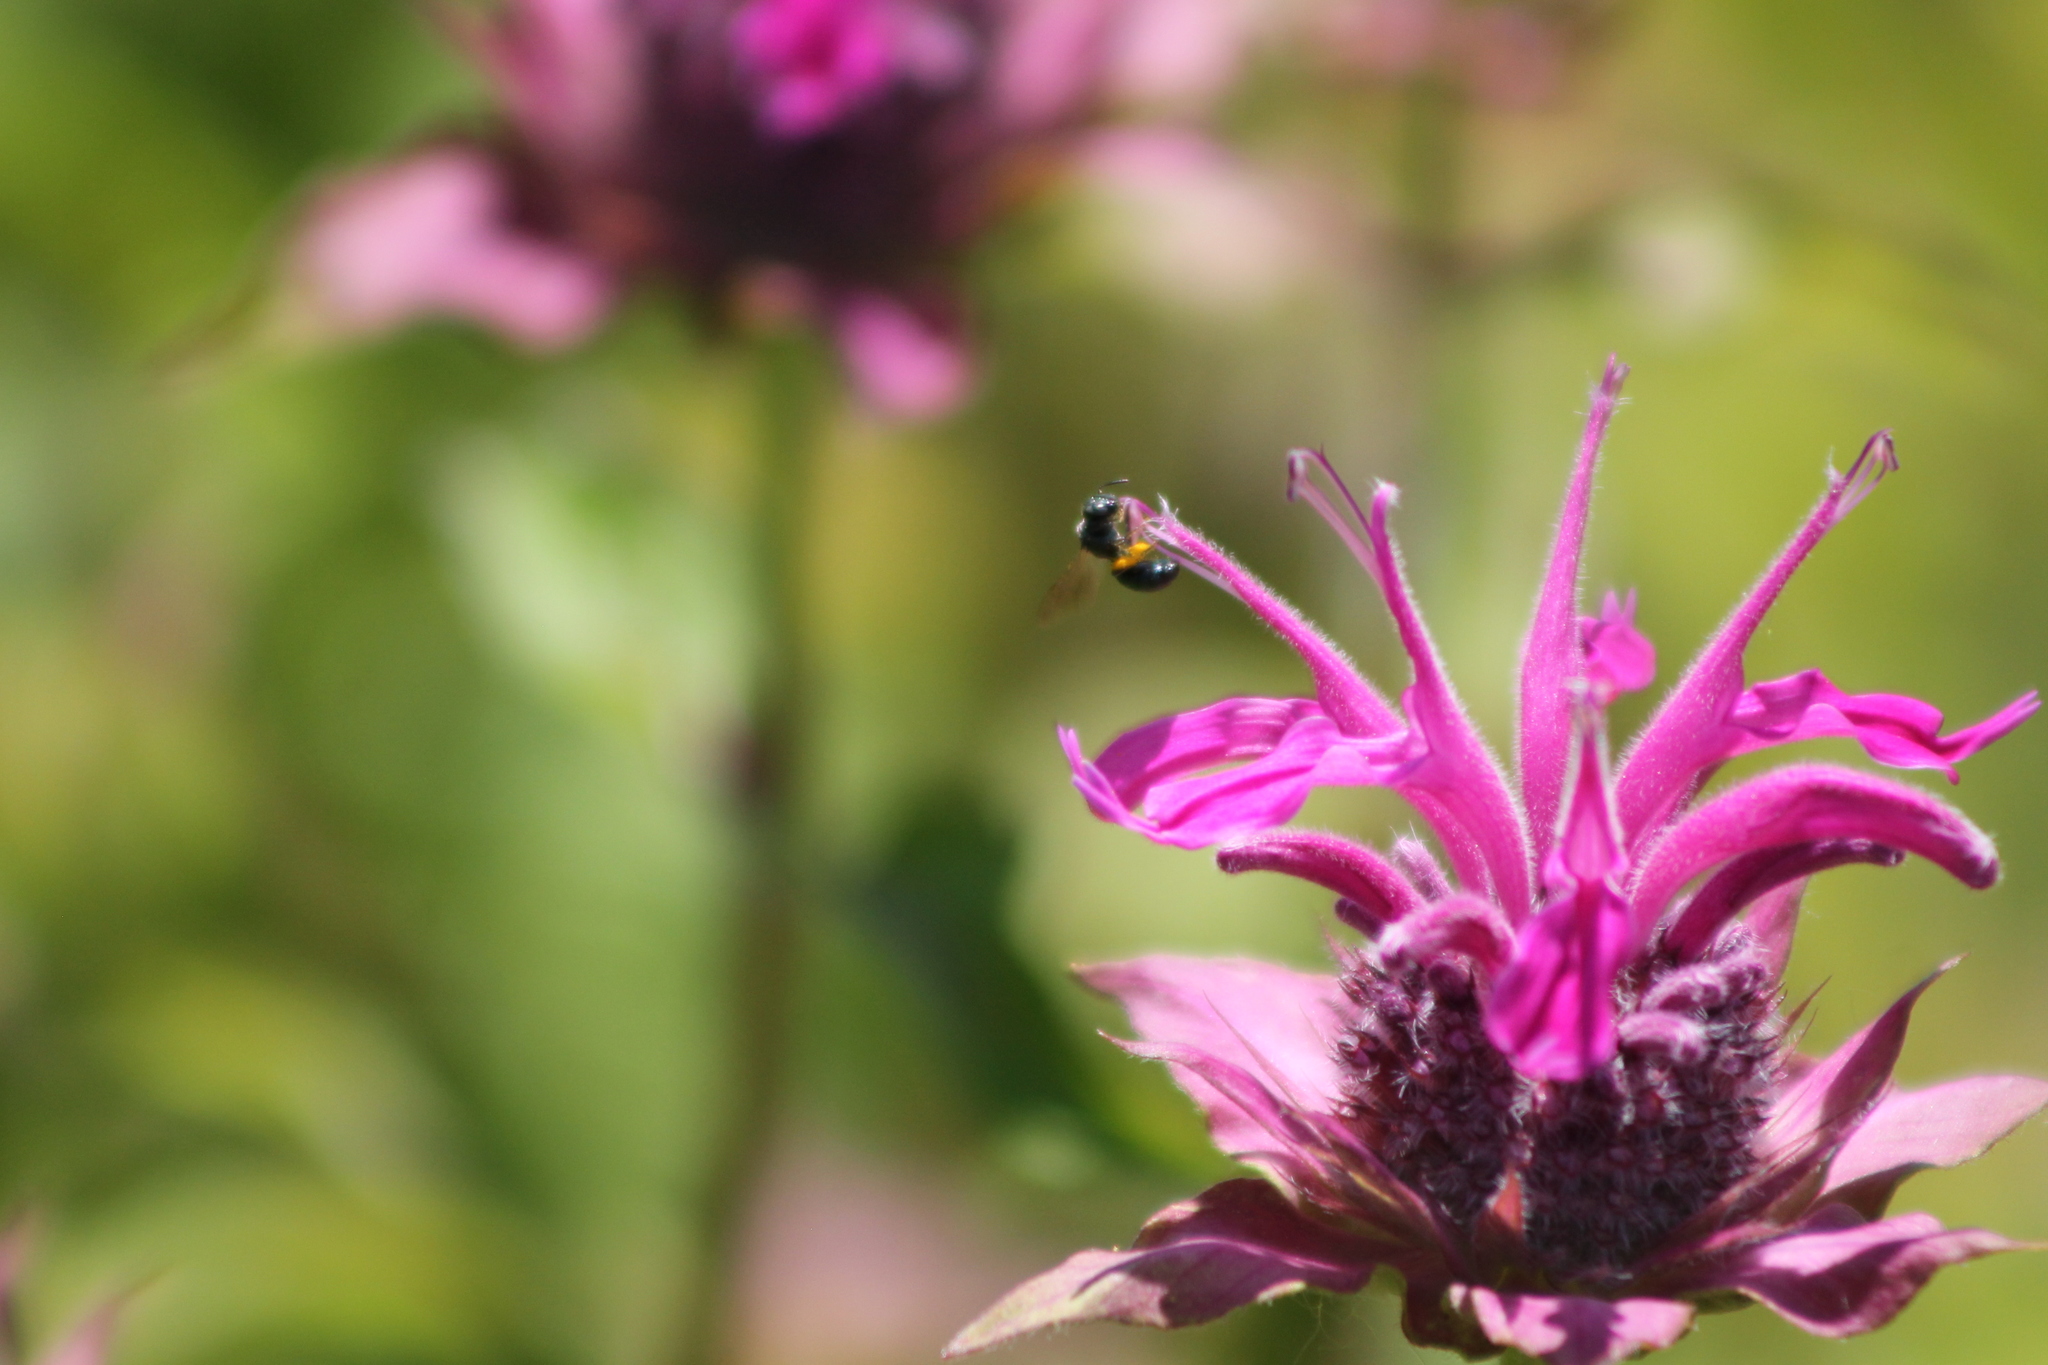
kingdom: Animalia
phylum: Arthropoda
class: Insecta
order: Hymenoptera
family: Apidae
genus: Zadontomerus
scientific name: Zadontomerus
